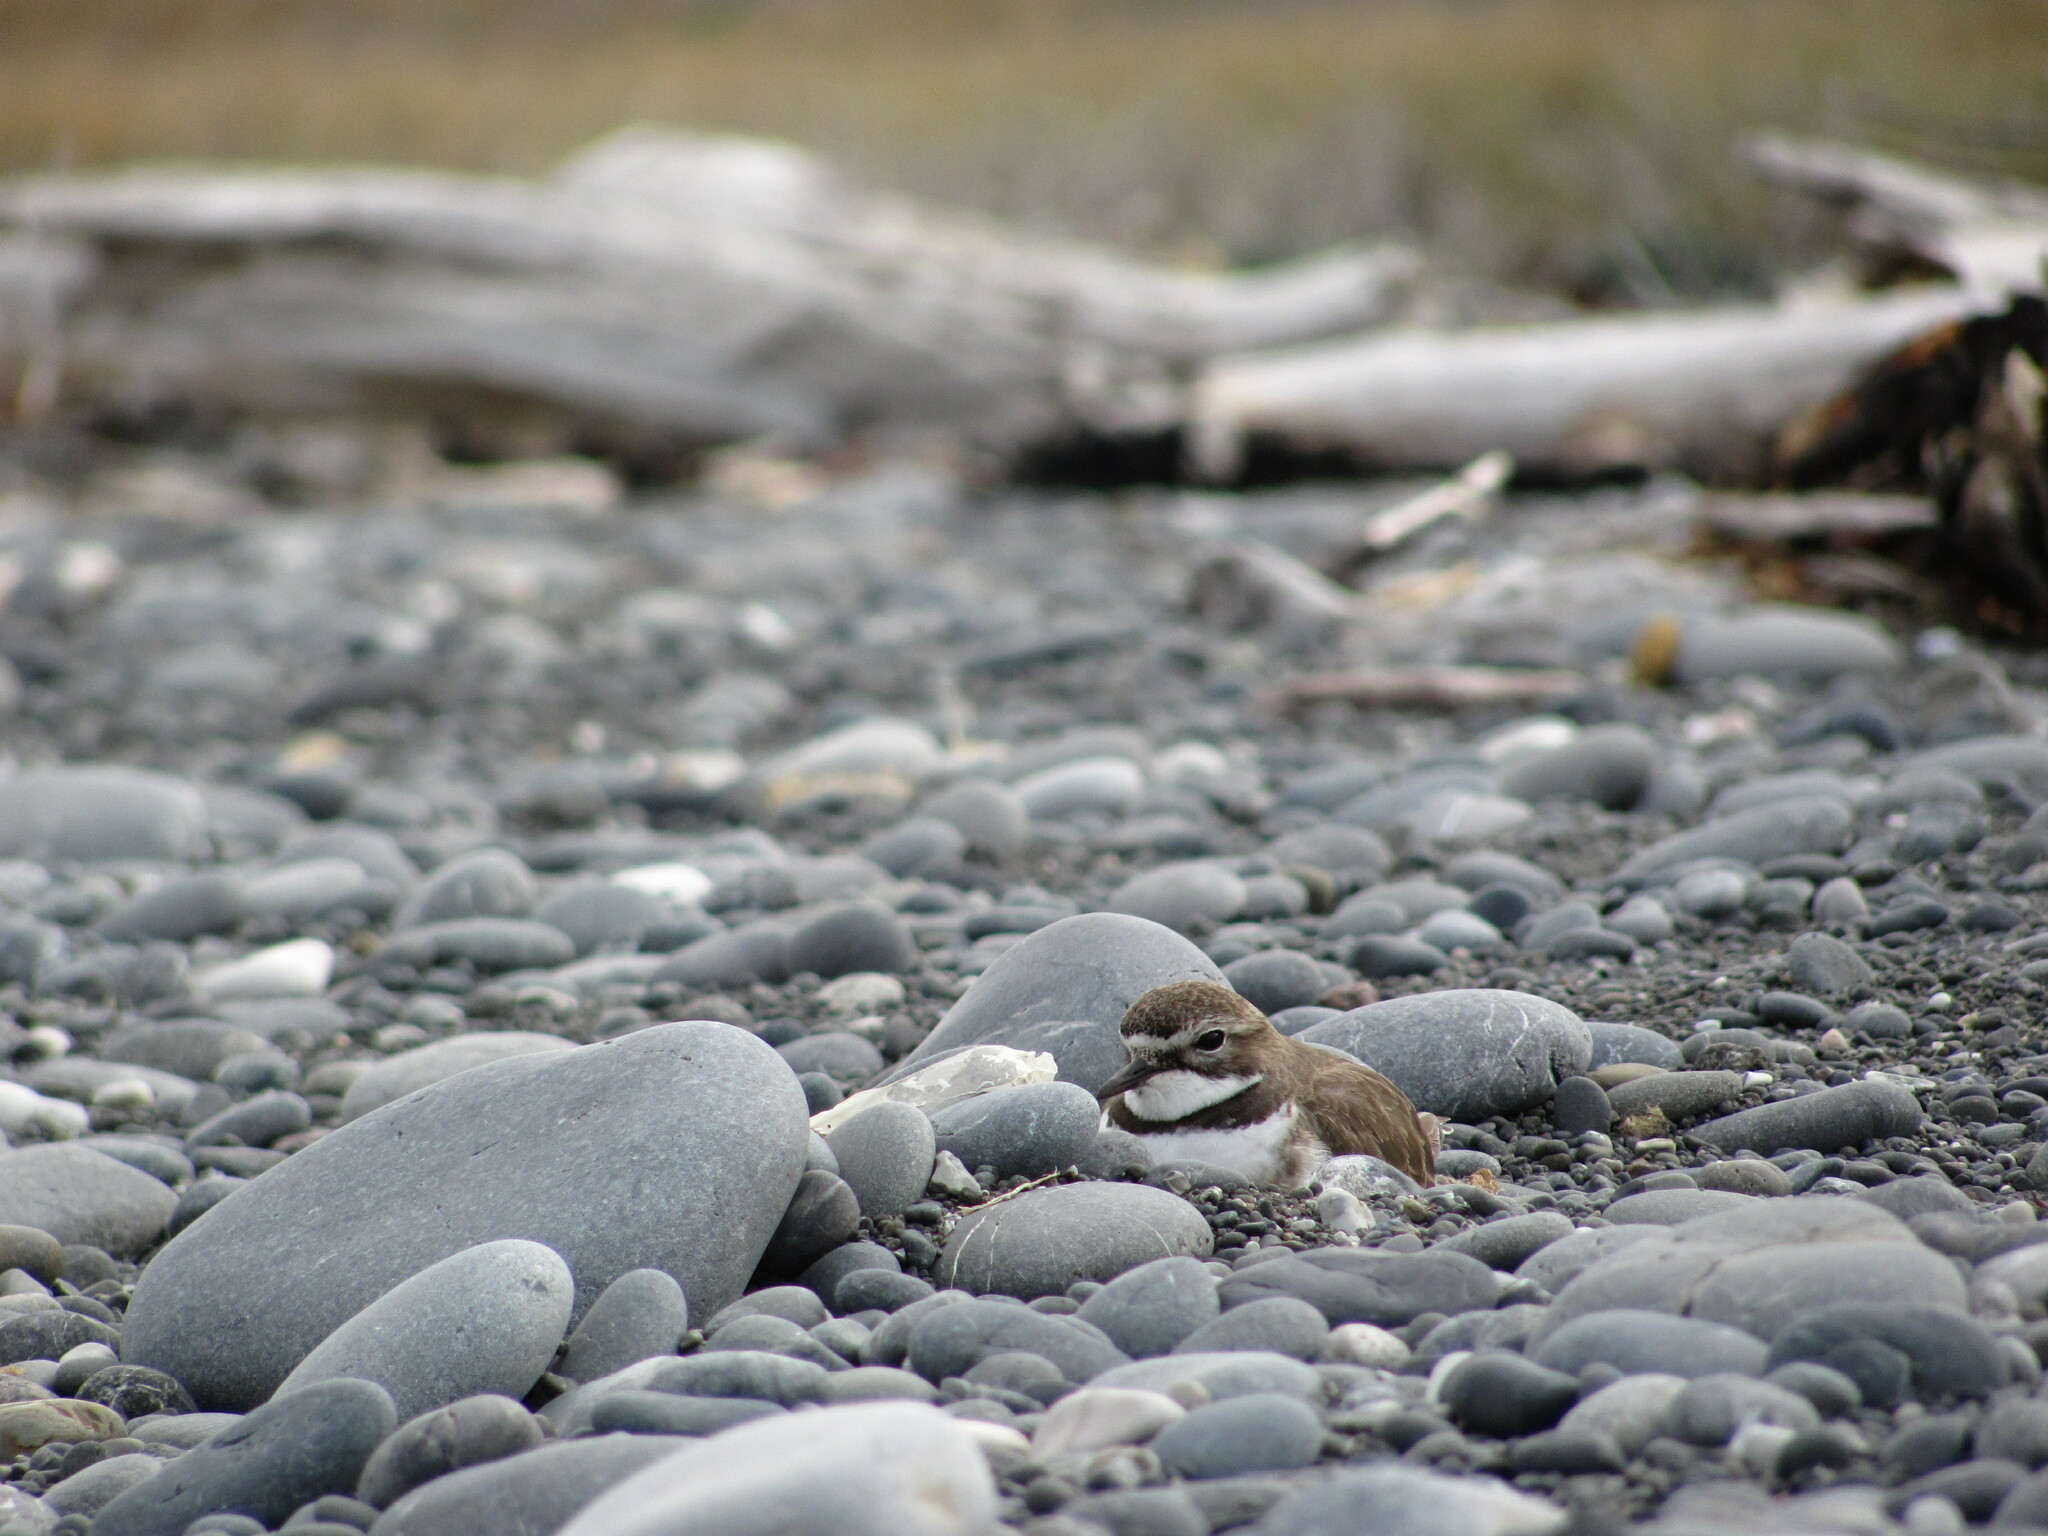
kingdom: Animalia
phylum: Chordata
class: Aves
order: Charadriiformes
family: Charadriidae
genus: Anarhynchus
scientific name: Anarhynchus
